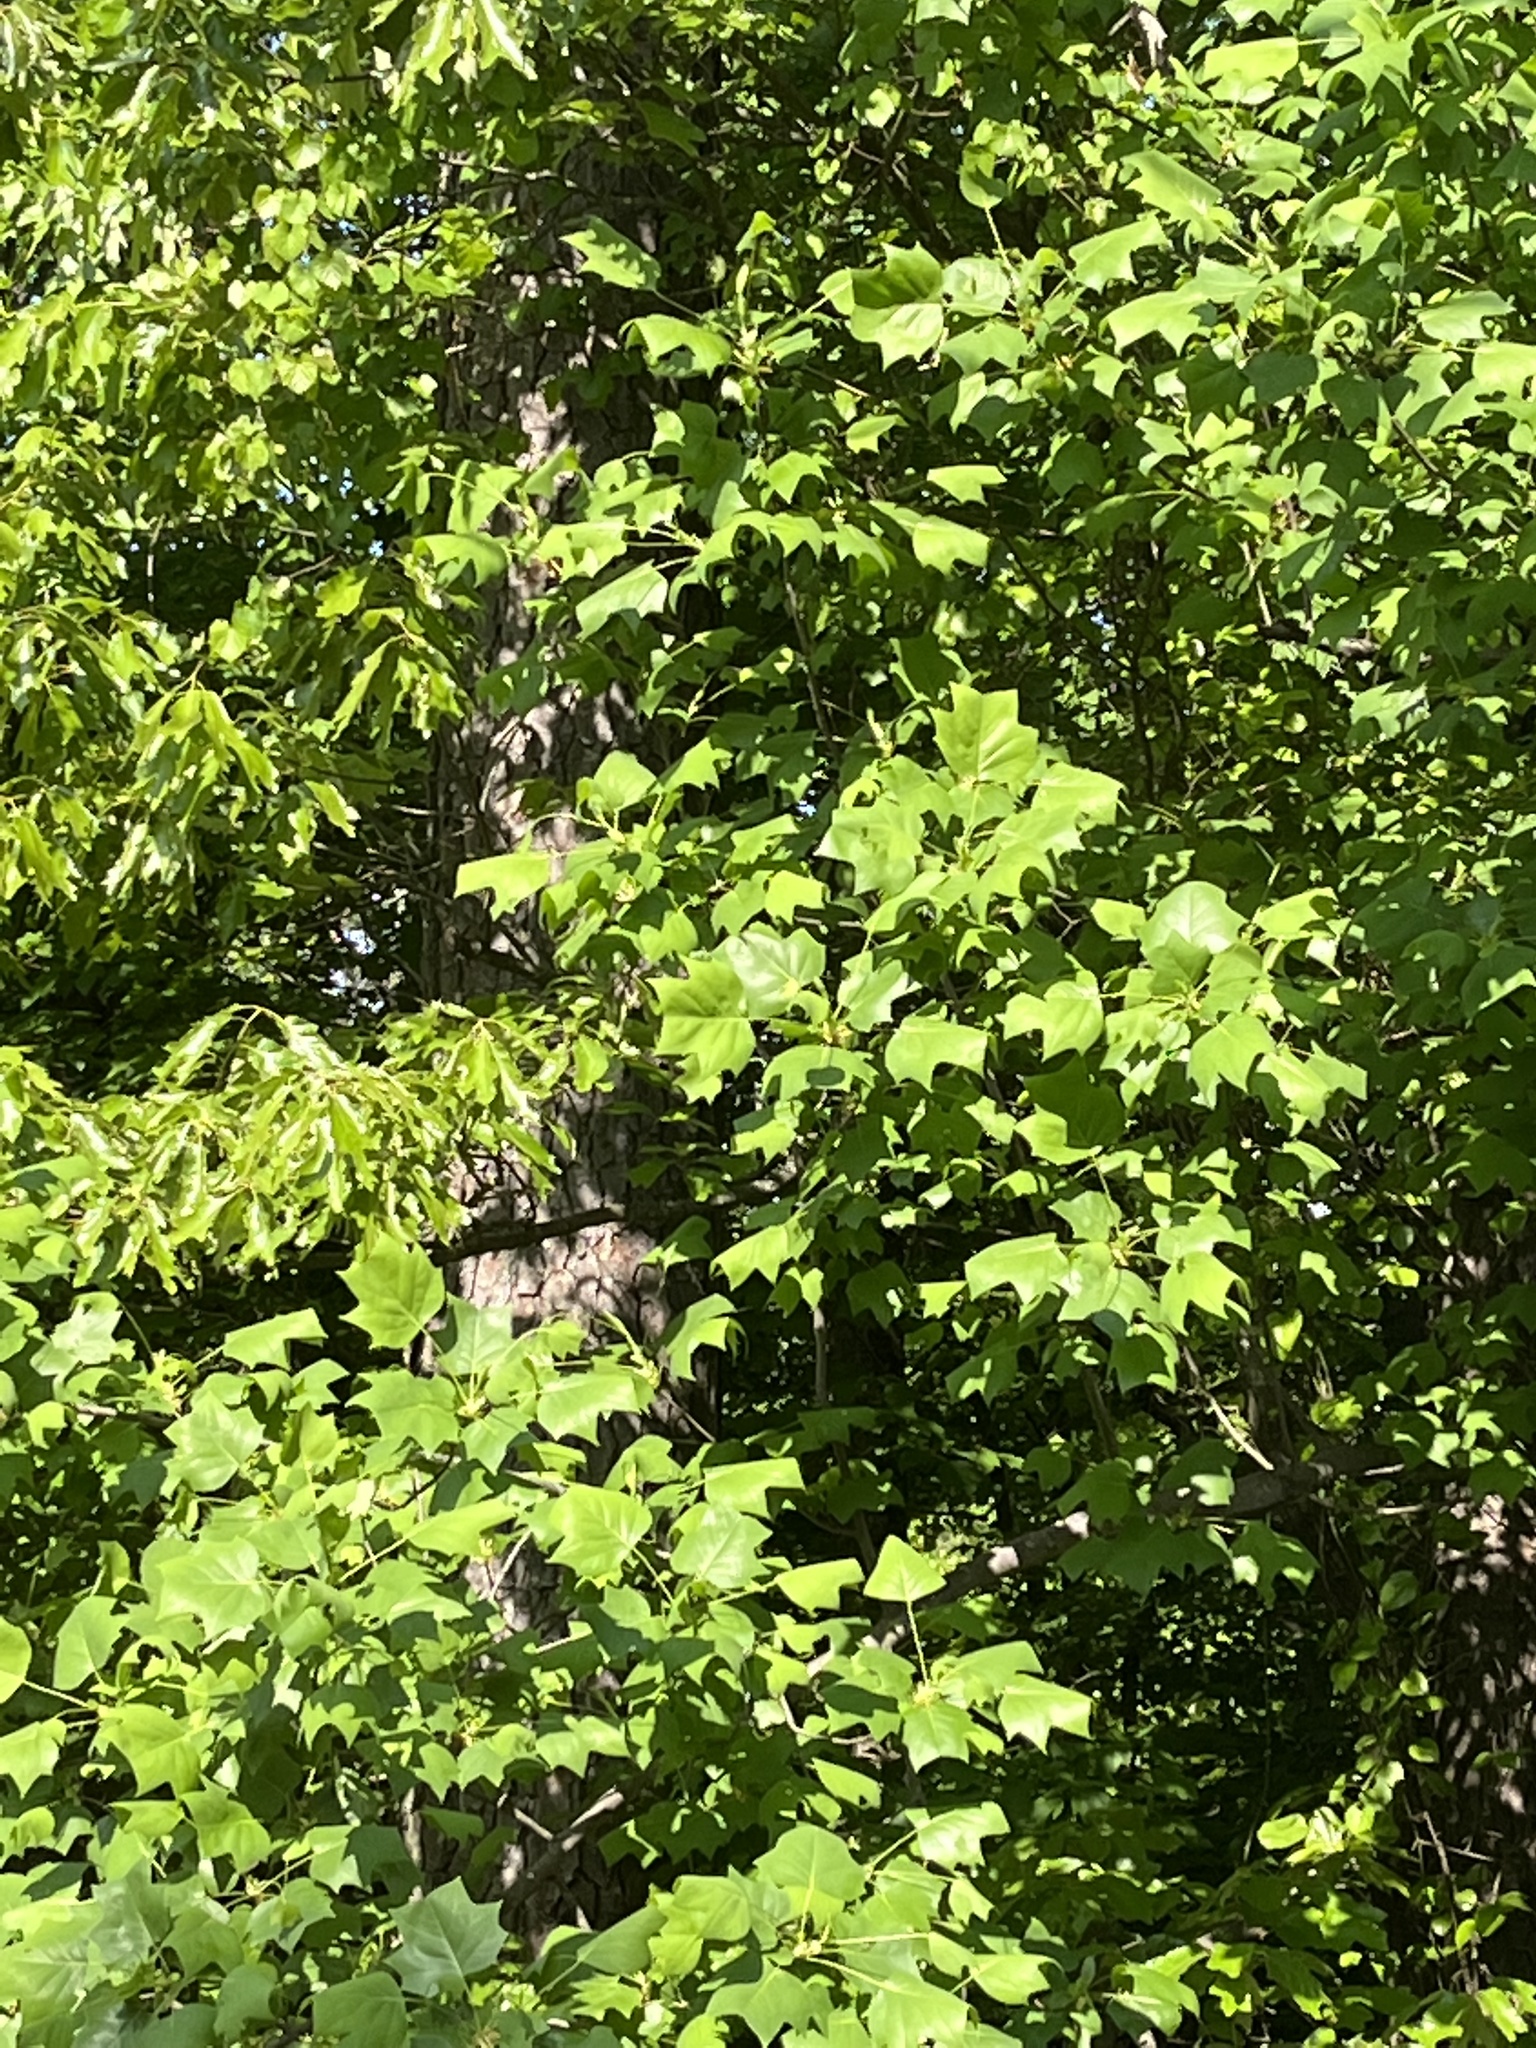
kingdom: Plantae
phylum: Tracheophyta
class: Magnoliopsida
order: Magnoliales
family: Magnoliaceae
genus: Liriodendron
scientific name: Liriodendron tulipifera
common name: Tulip tree
